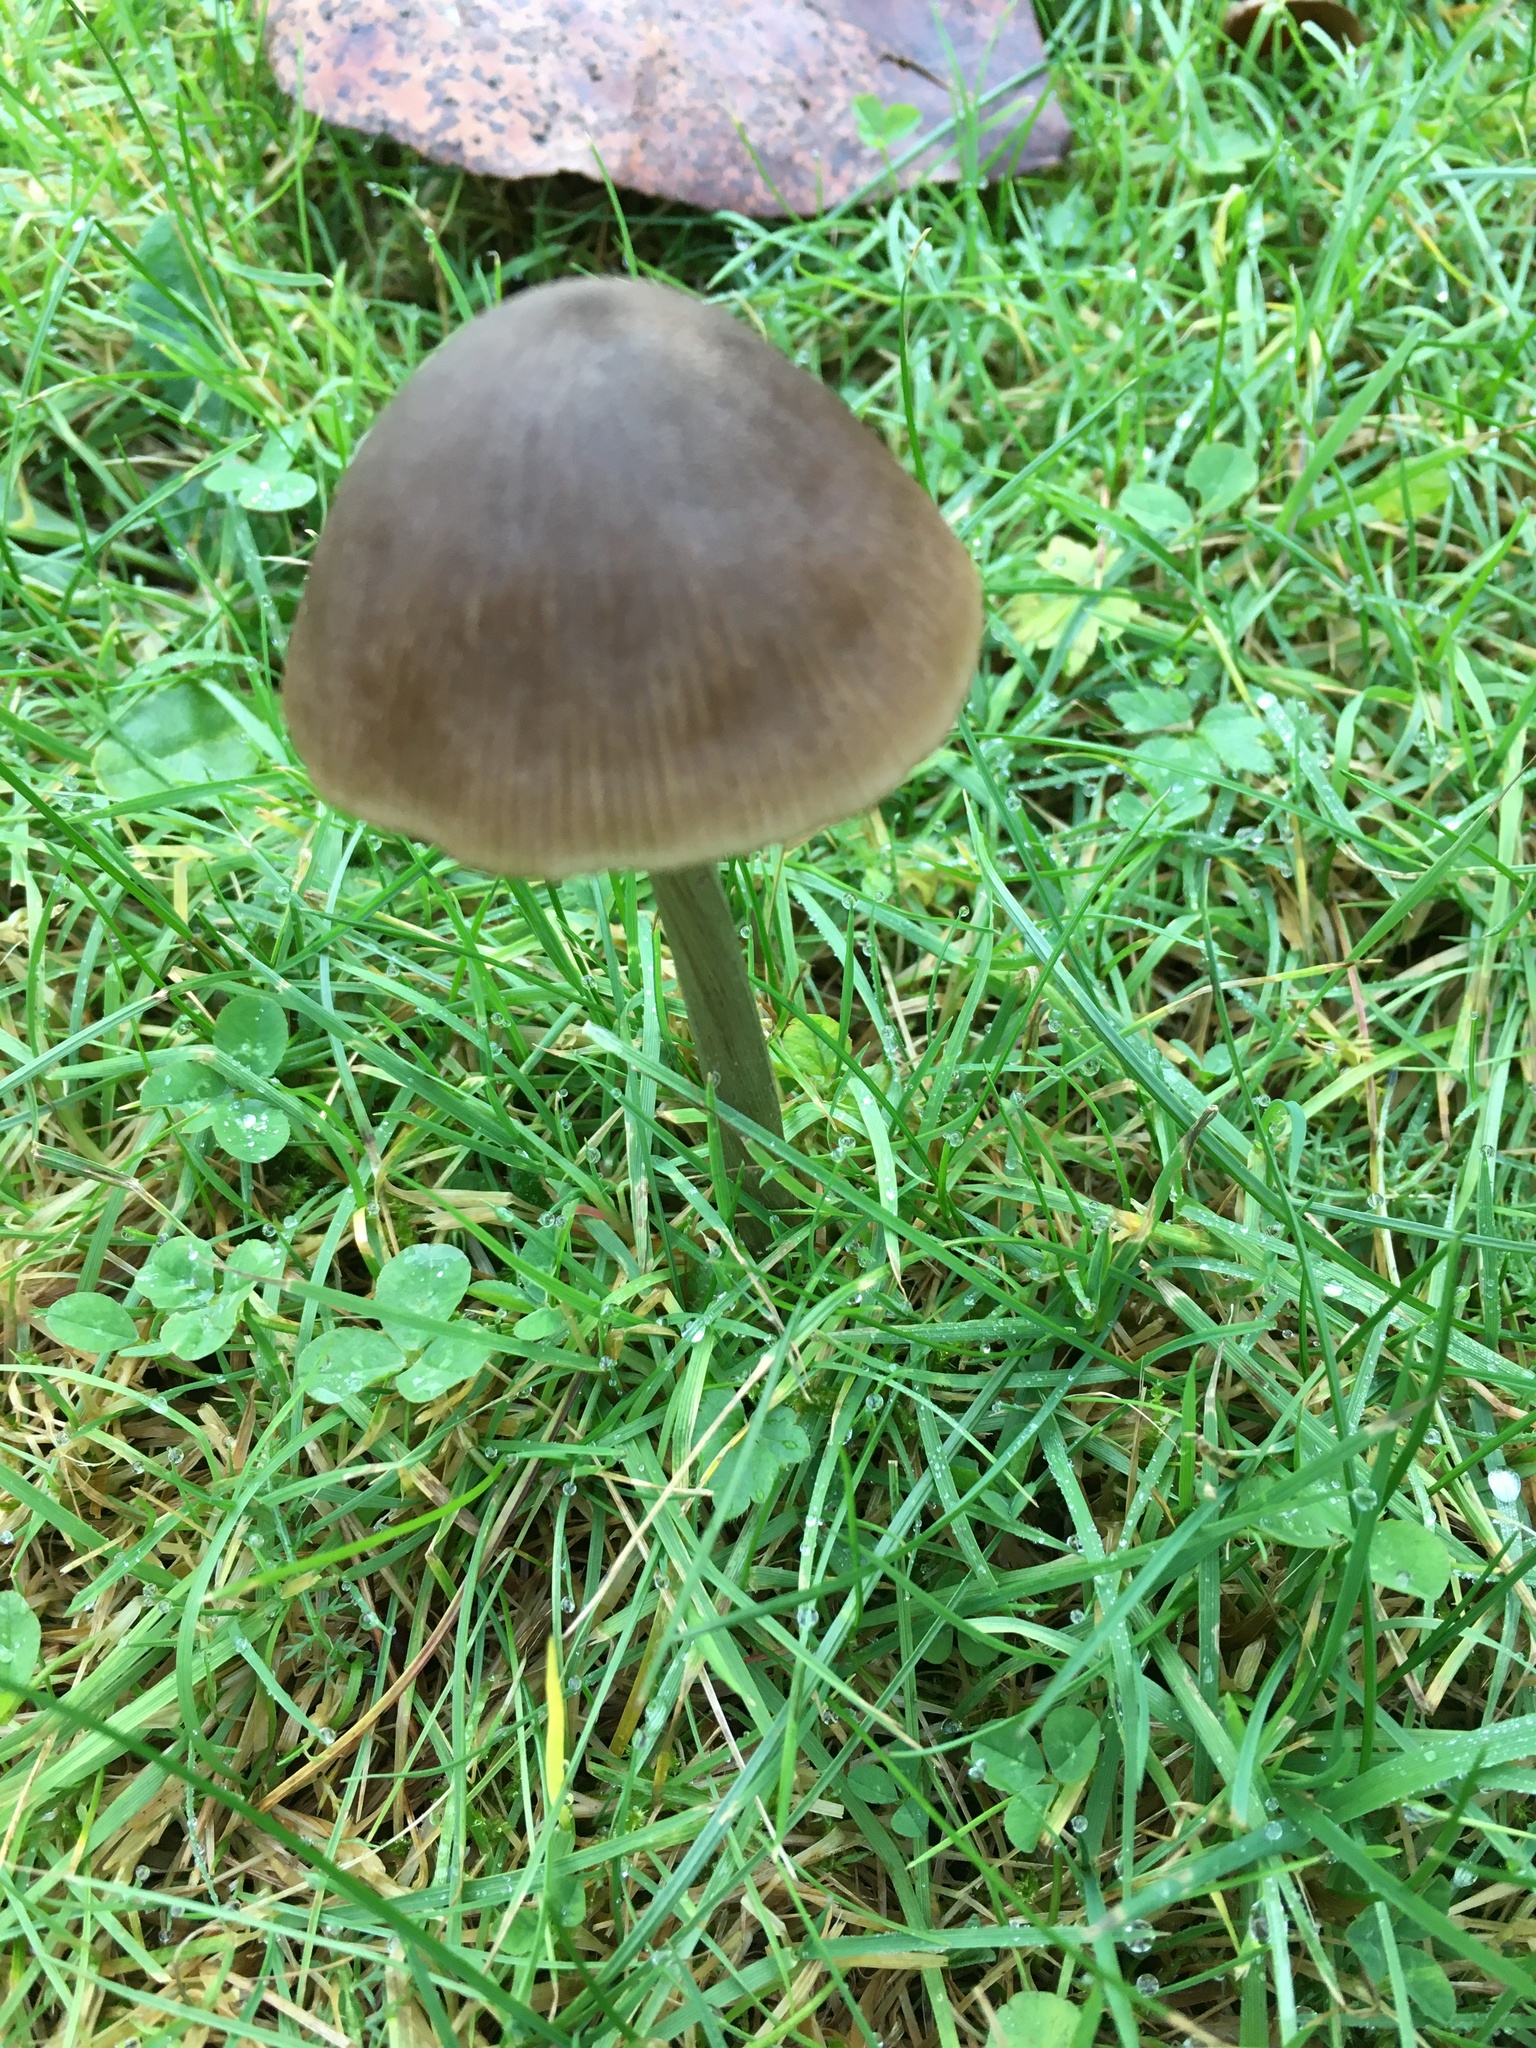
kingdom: Fungi
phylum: Basidiomycota
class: Agaricomycetes
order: Agaricales
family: Bolbitiaceae
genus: Panaeolina
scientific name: Panaeolina foenisecii
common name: Brown hay cap
